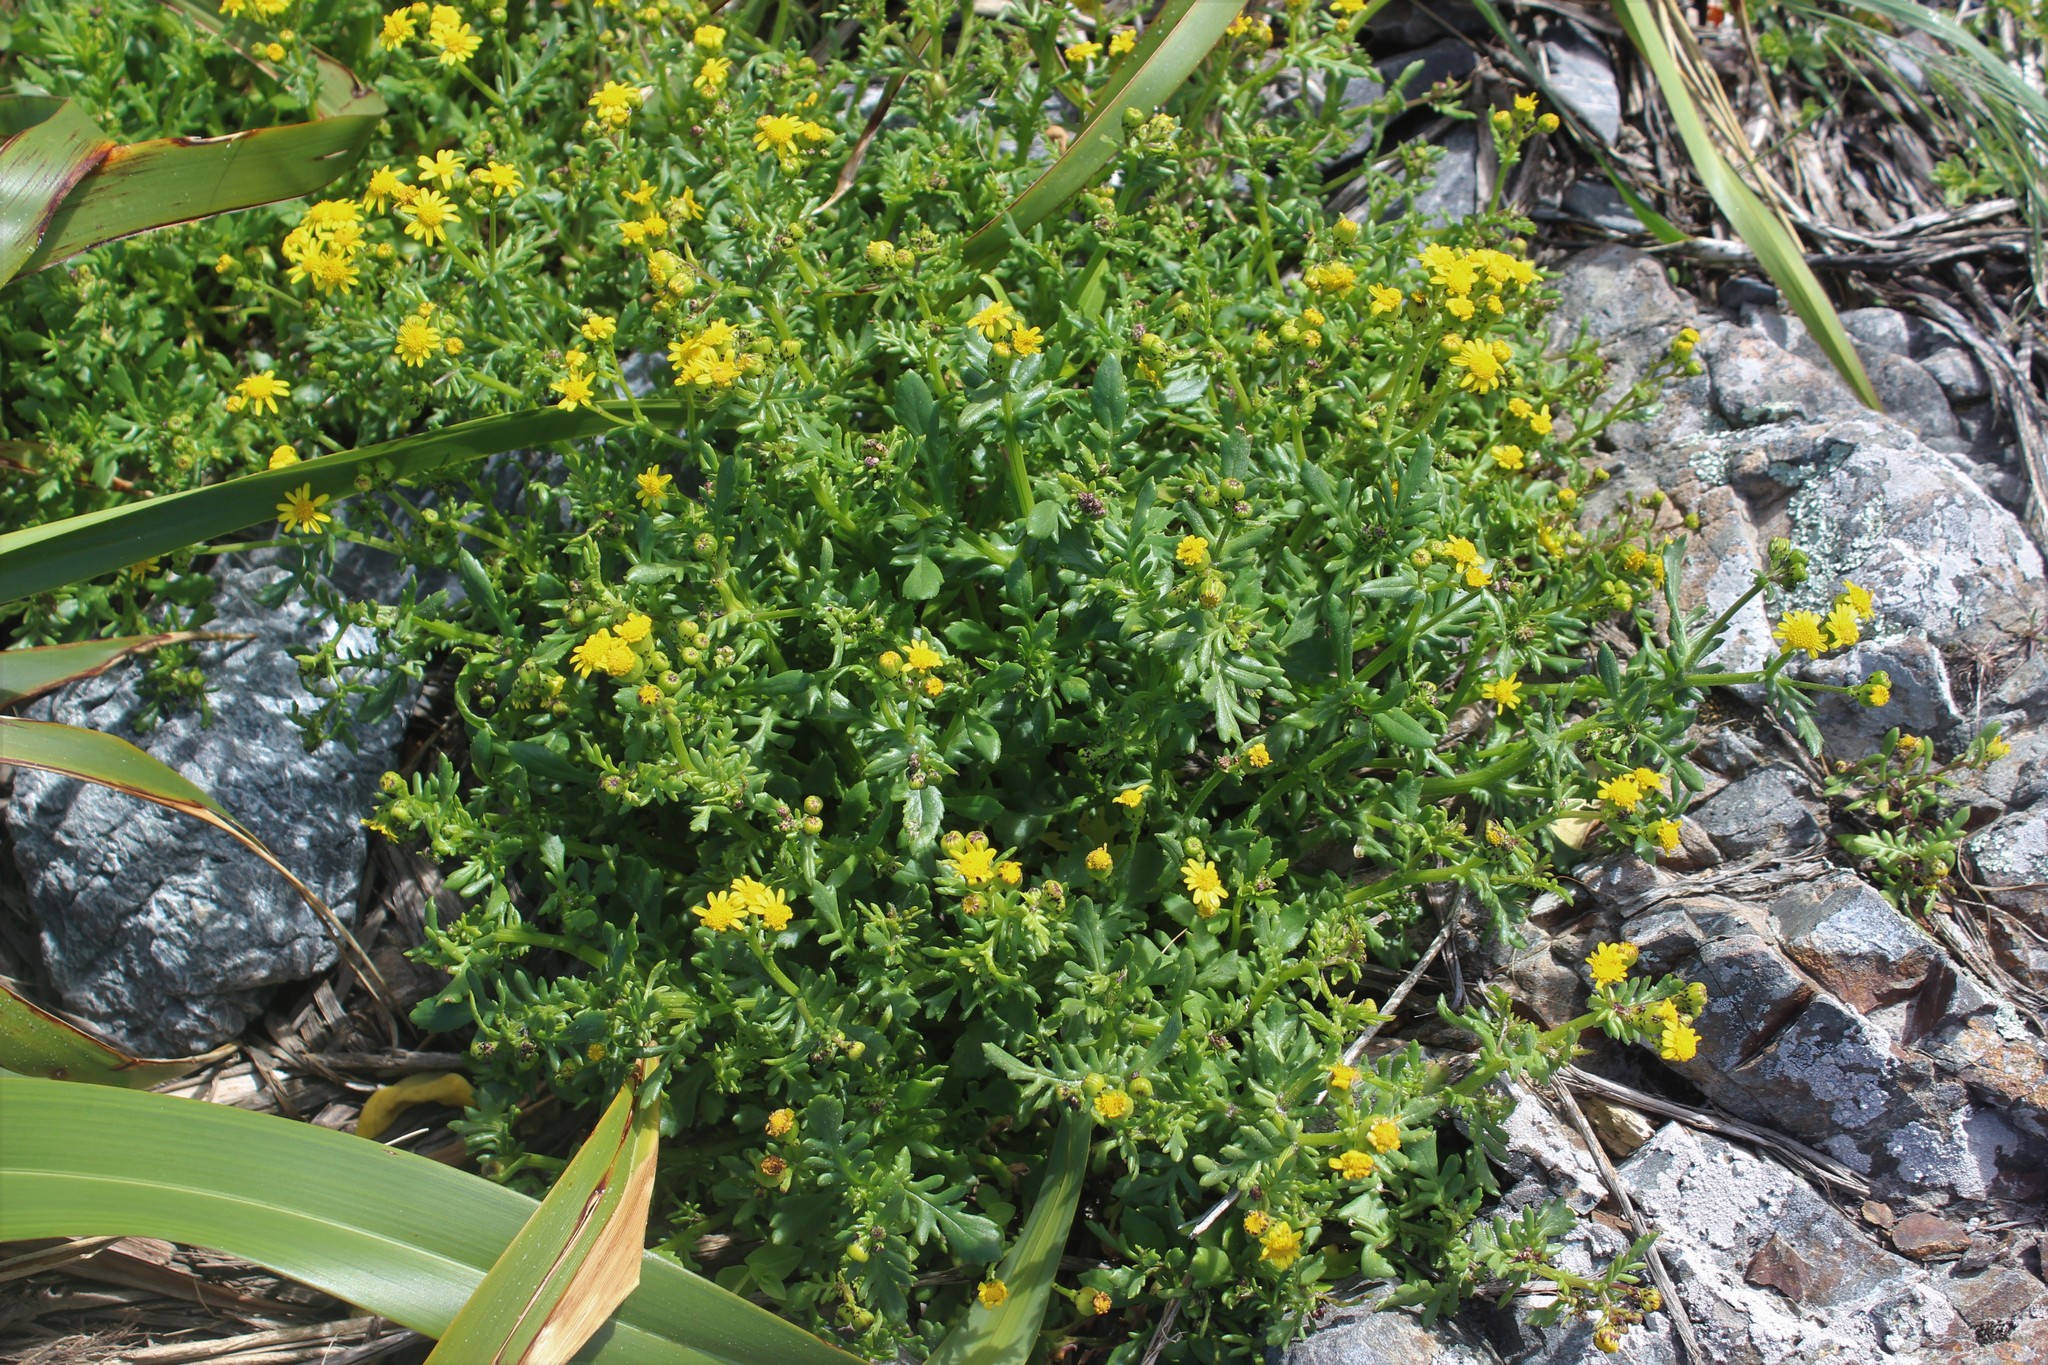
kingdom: Plantae
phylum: Tracheophyta
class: Magnoliopsida
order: Asterales
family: Asteraceae
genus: Senecio
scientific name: Senecio lautus
